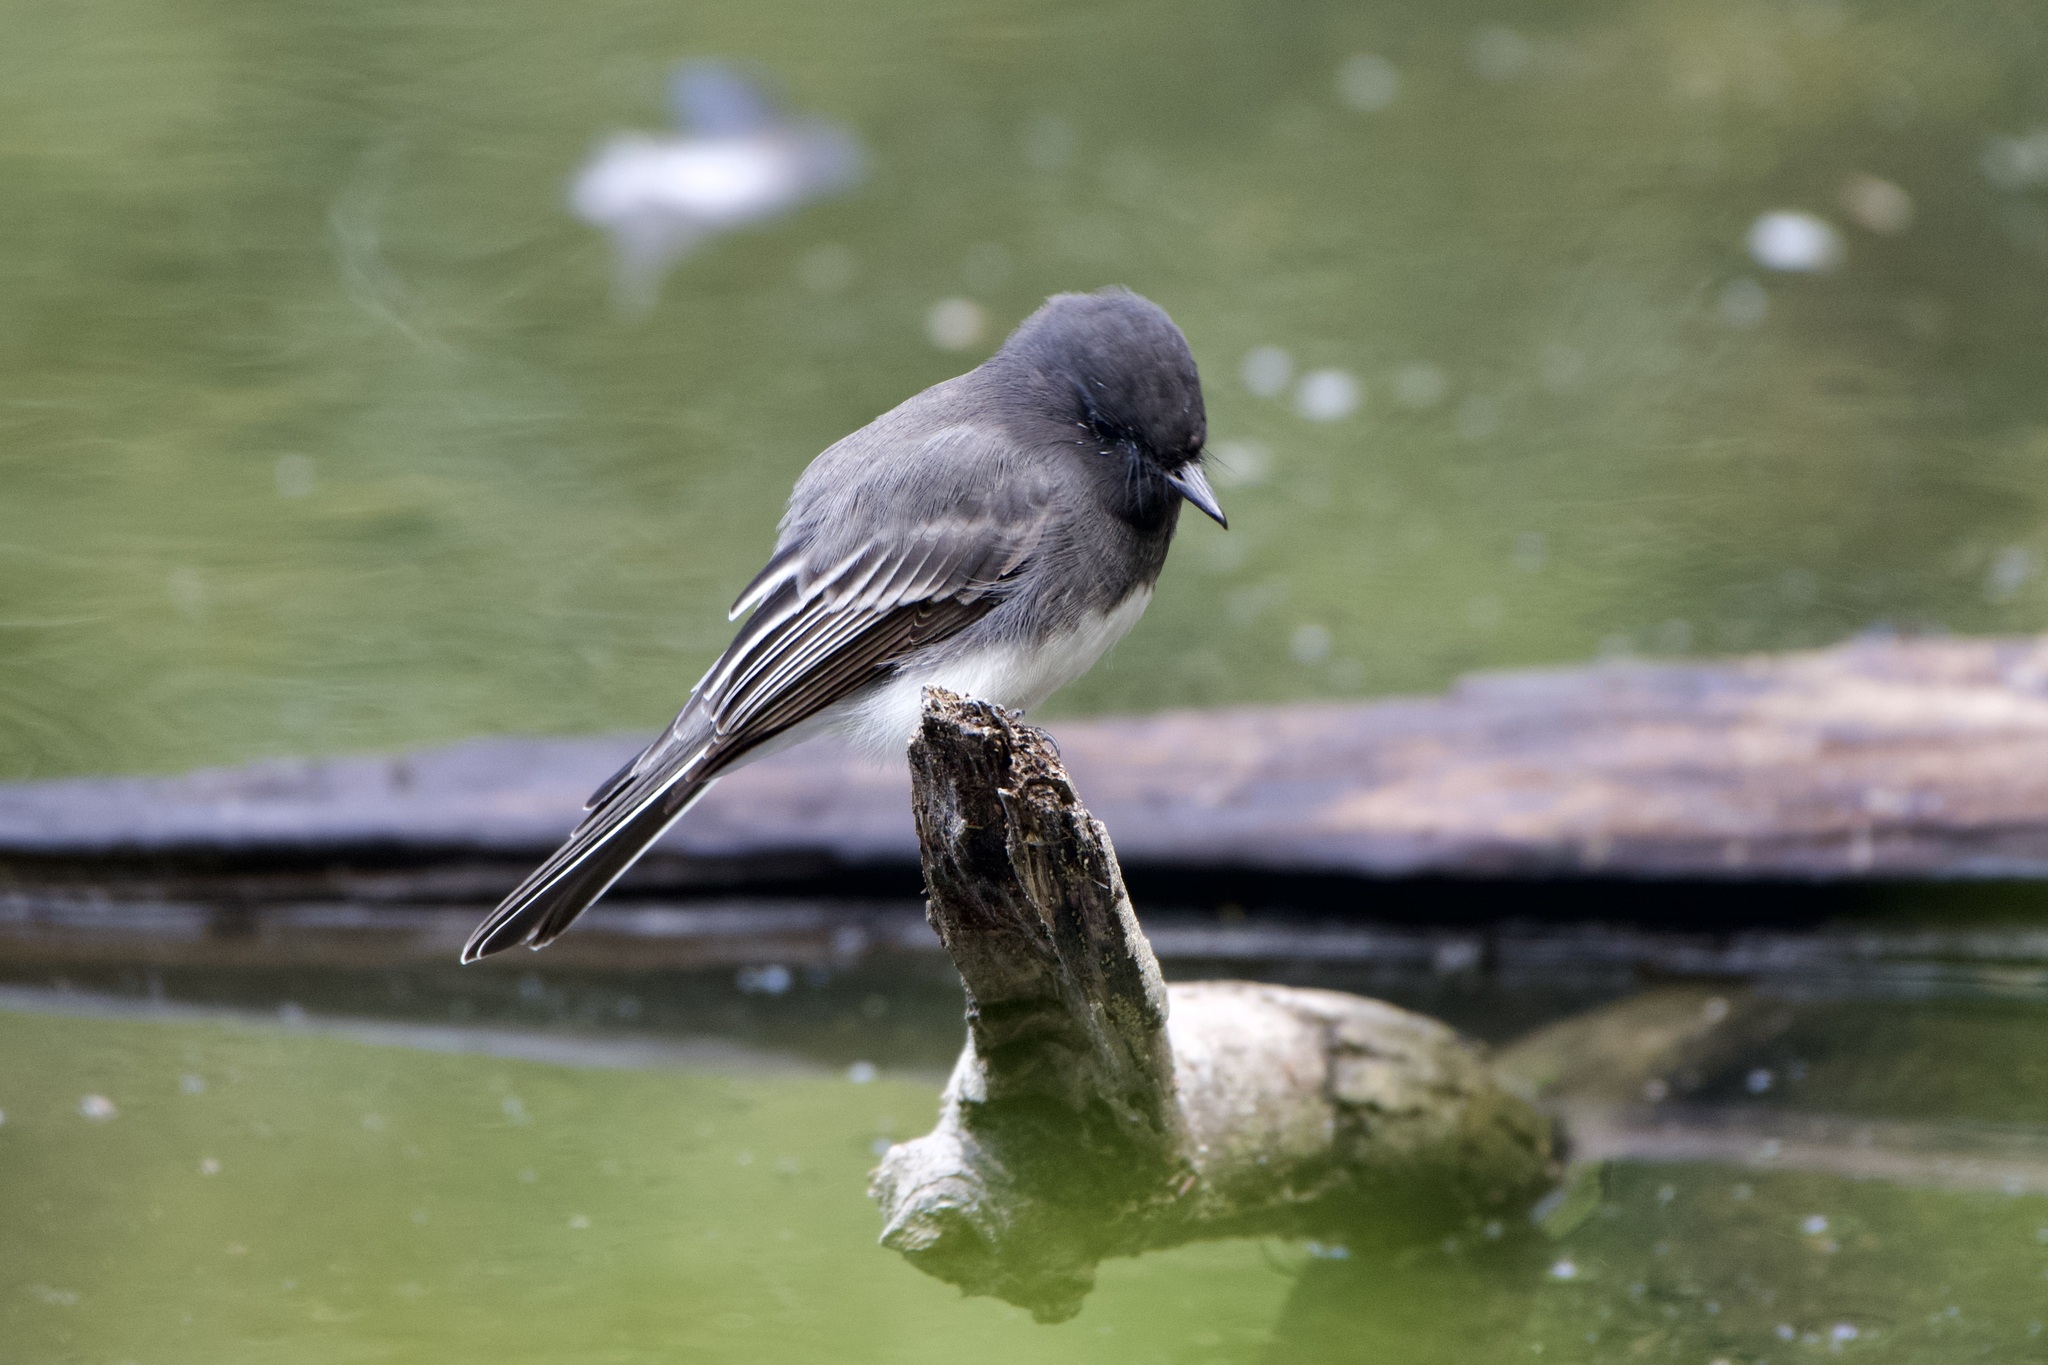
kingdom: Animalia
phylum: Chordata
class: Aves
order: Passeriformes
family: Tyrannidae
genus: Sayornis
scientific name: Sayornis nigricans
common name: Black phoebe
